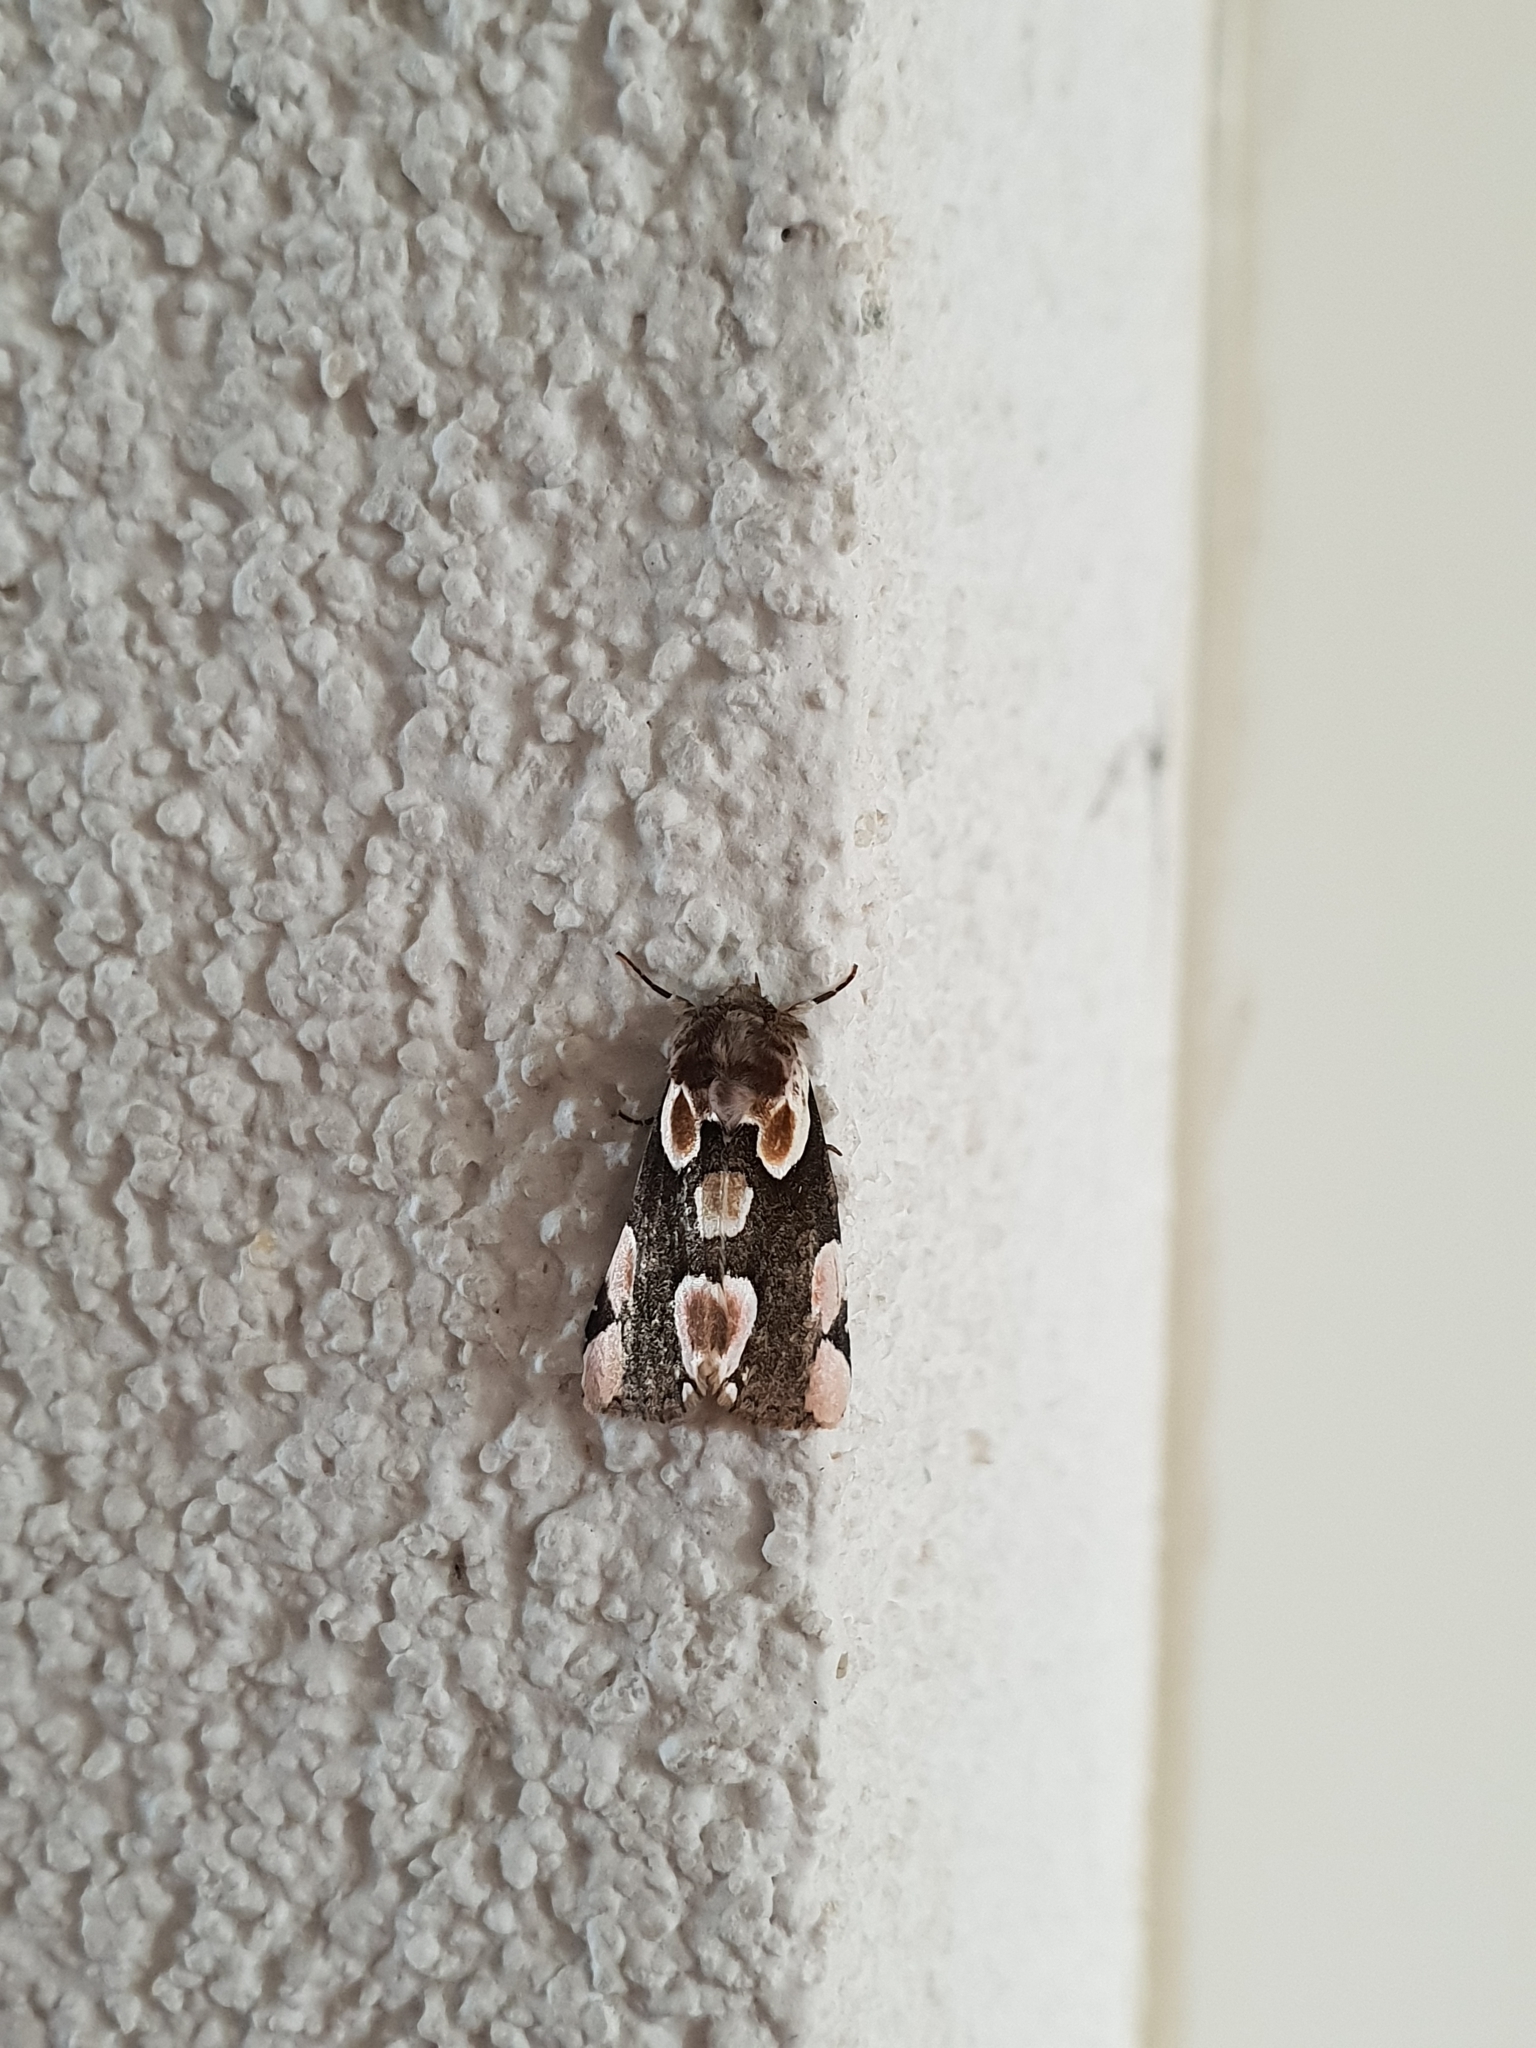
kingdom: Animalia
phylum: Arthropoda
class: Insecta
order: Lepidoptera
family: Drepanidae
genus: Thyatira
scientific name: Thyatira batis
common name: Peach blossom
